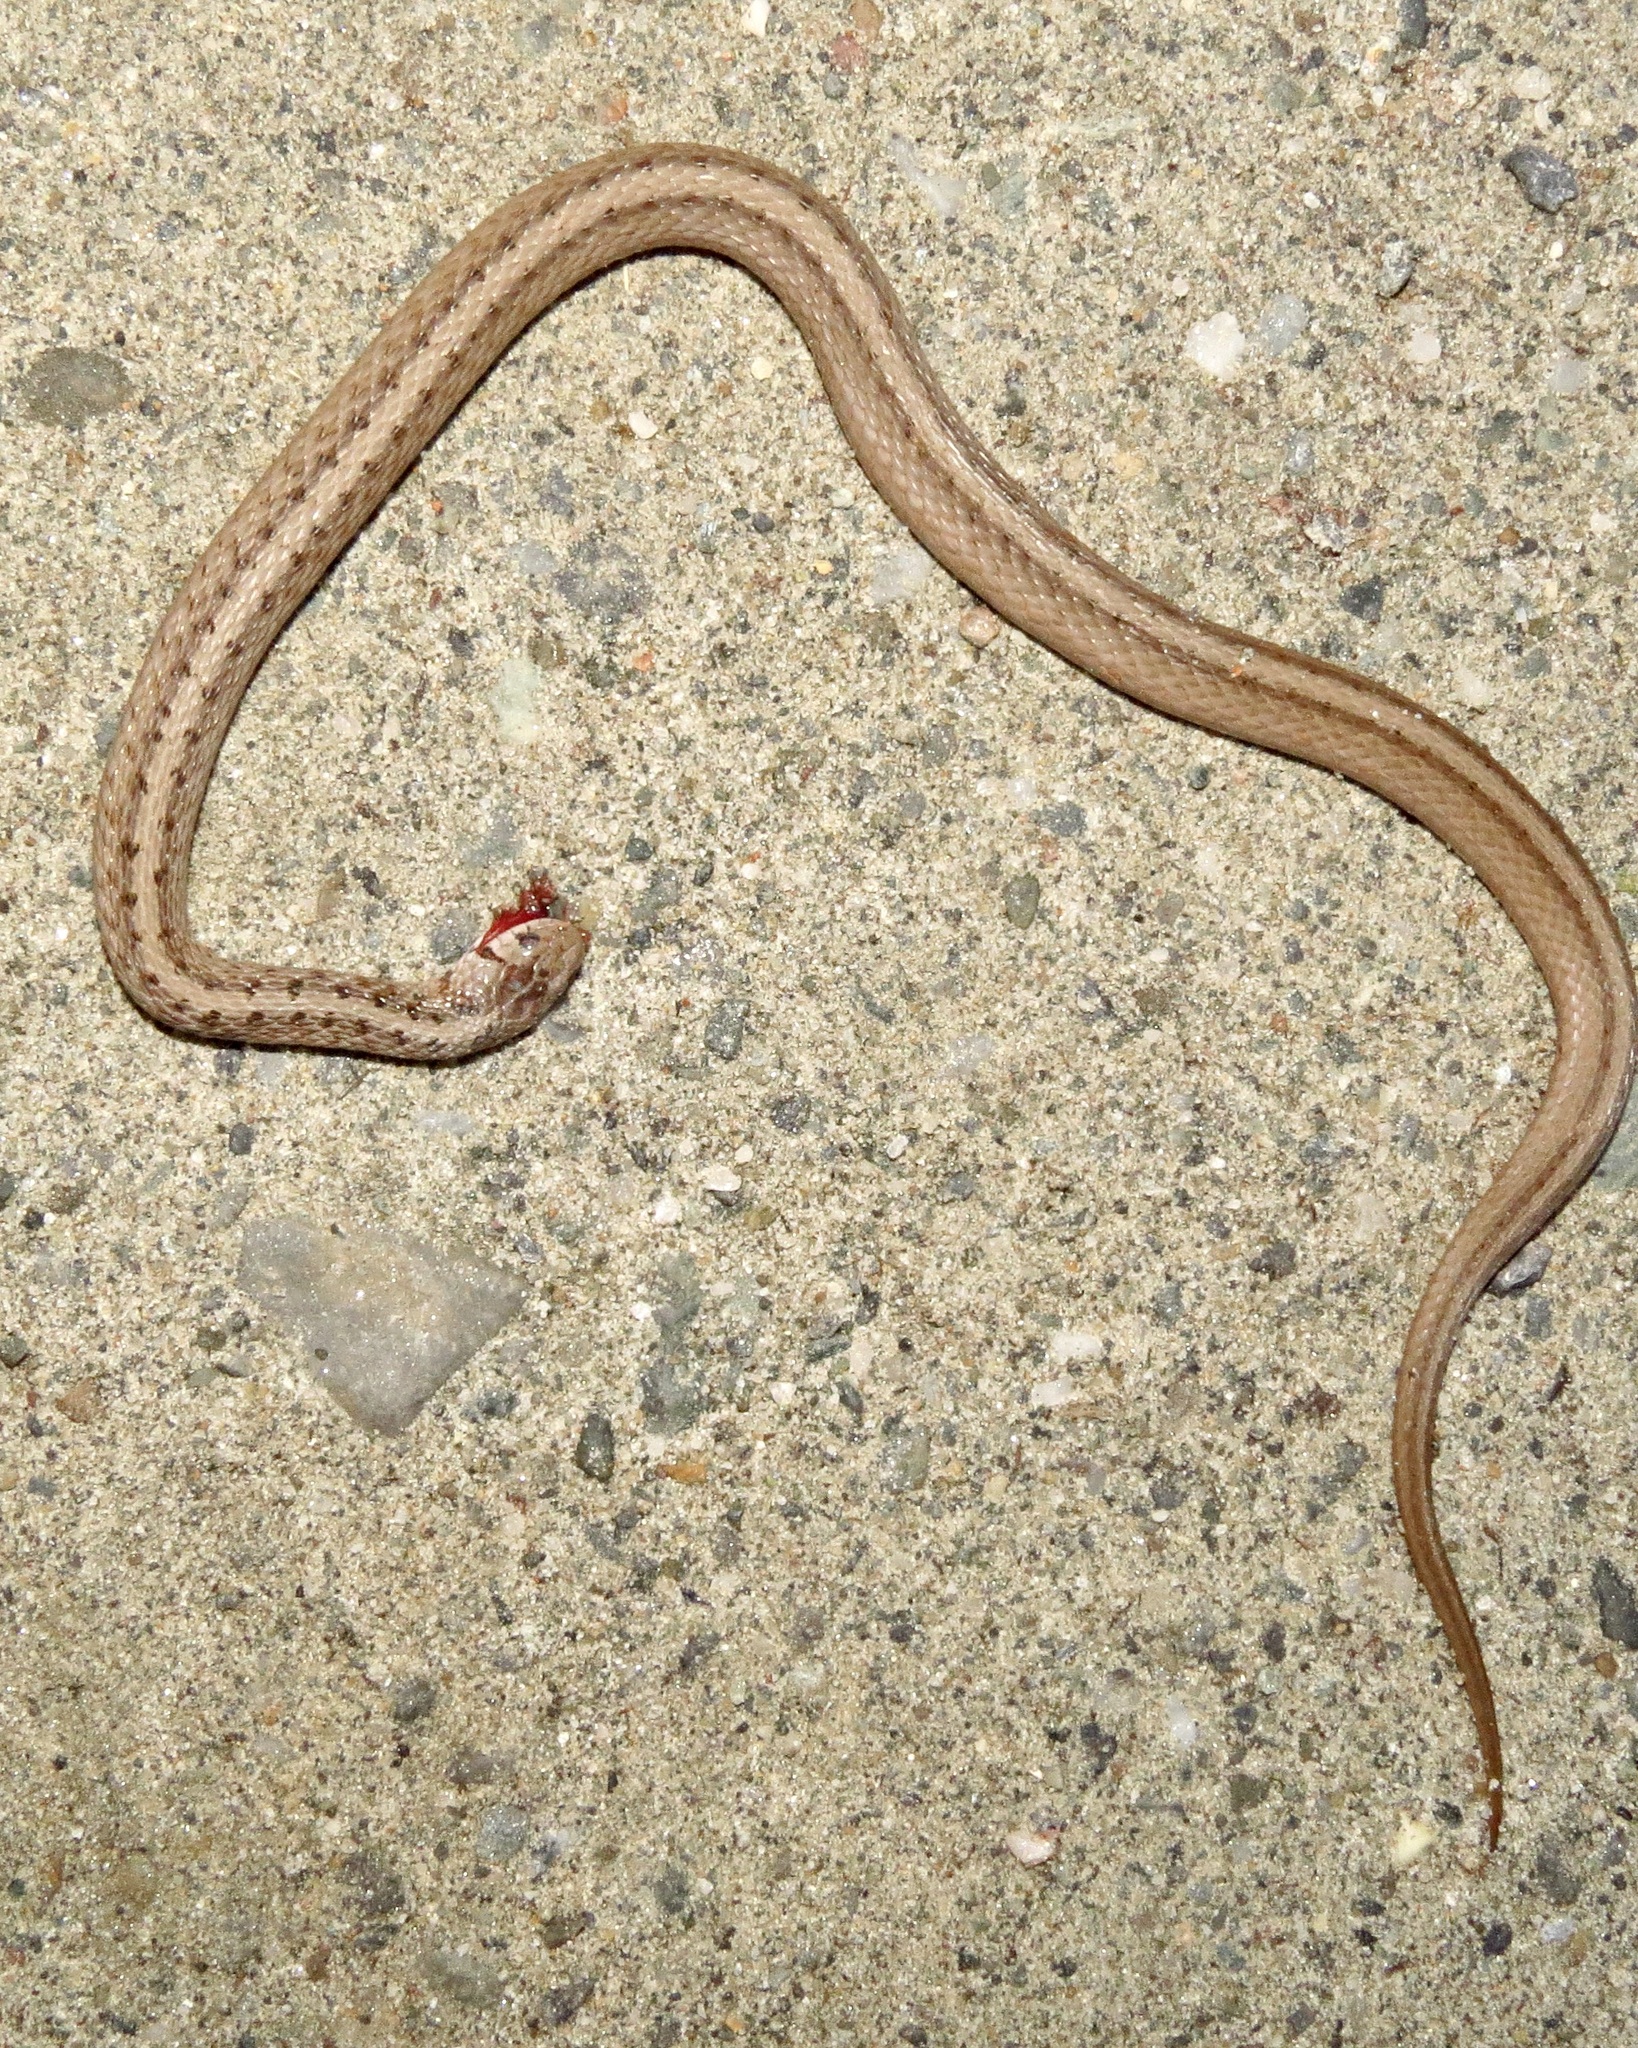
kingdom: Animalia
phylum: Chordata
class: Squamata
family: Colubridae
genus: Storeria
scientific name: Storeria dekayi
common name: (dekay’s) brown snake
